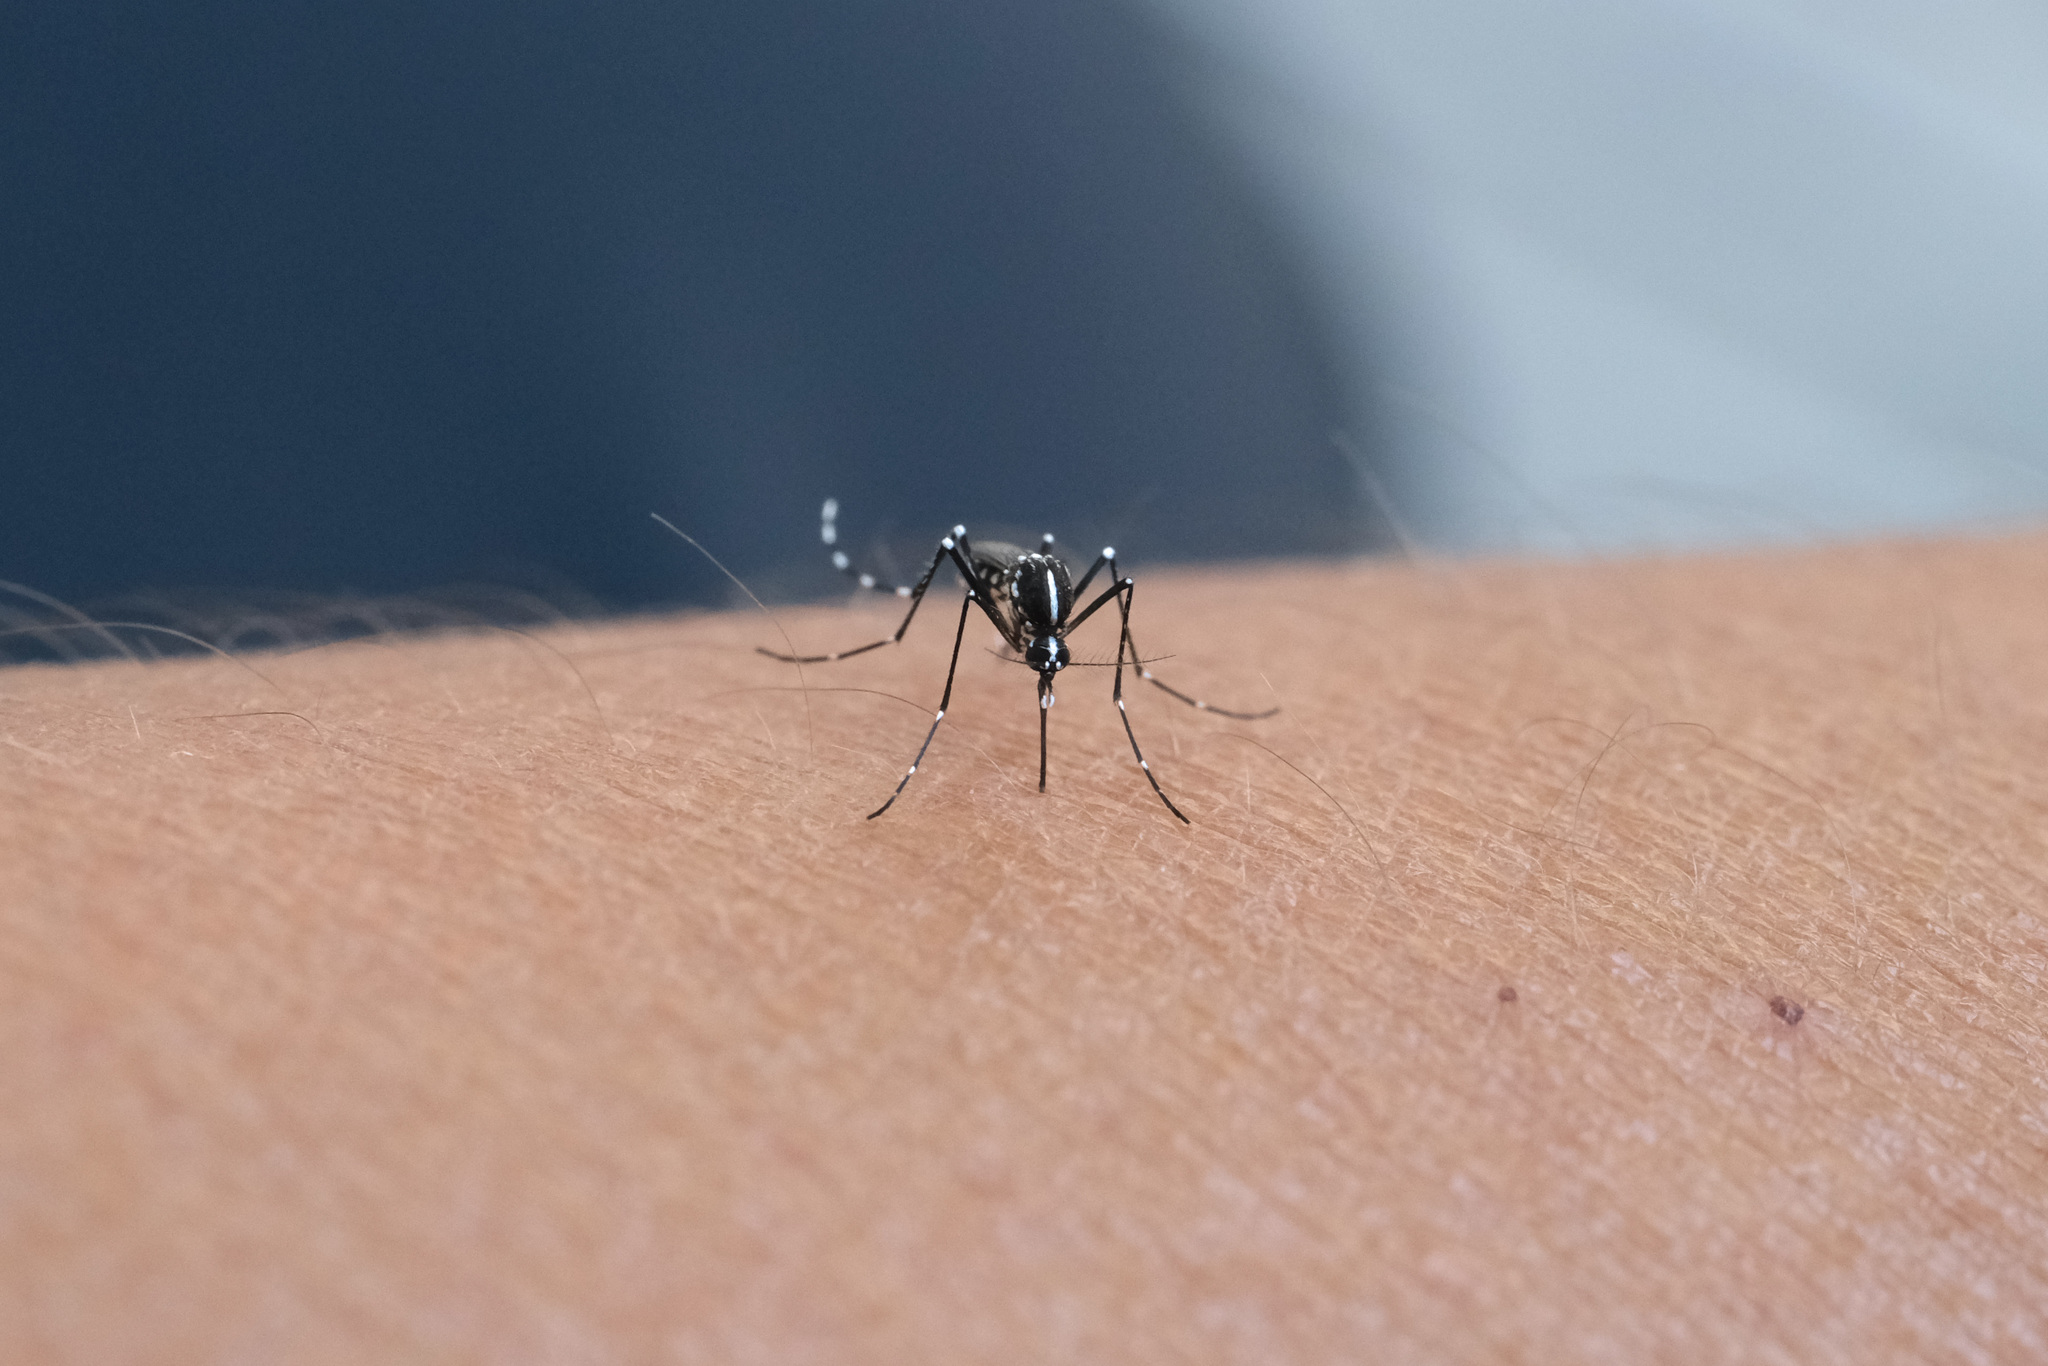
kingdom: Animalia
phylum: Arthropoda
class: Insecta
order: Diptera
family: Culicidae
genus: Aedes
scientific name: Aedes albopictus
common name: Tiger mosquito
